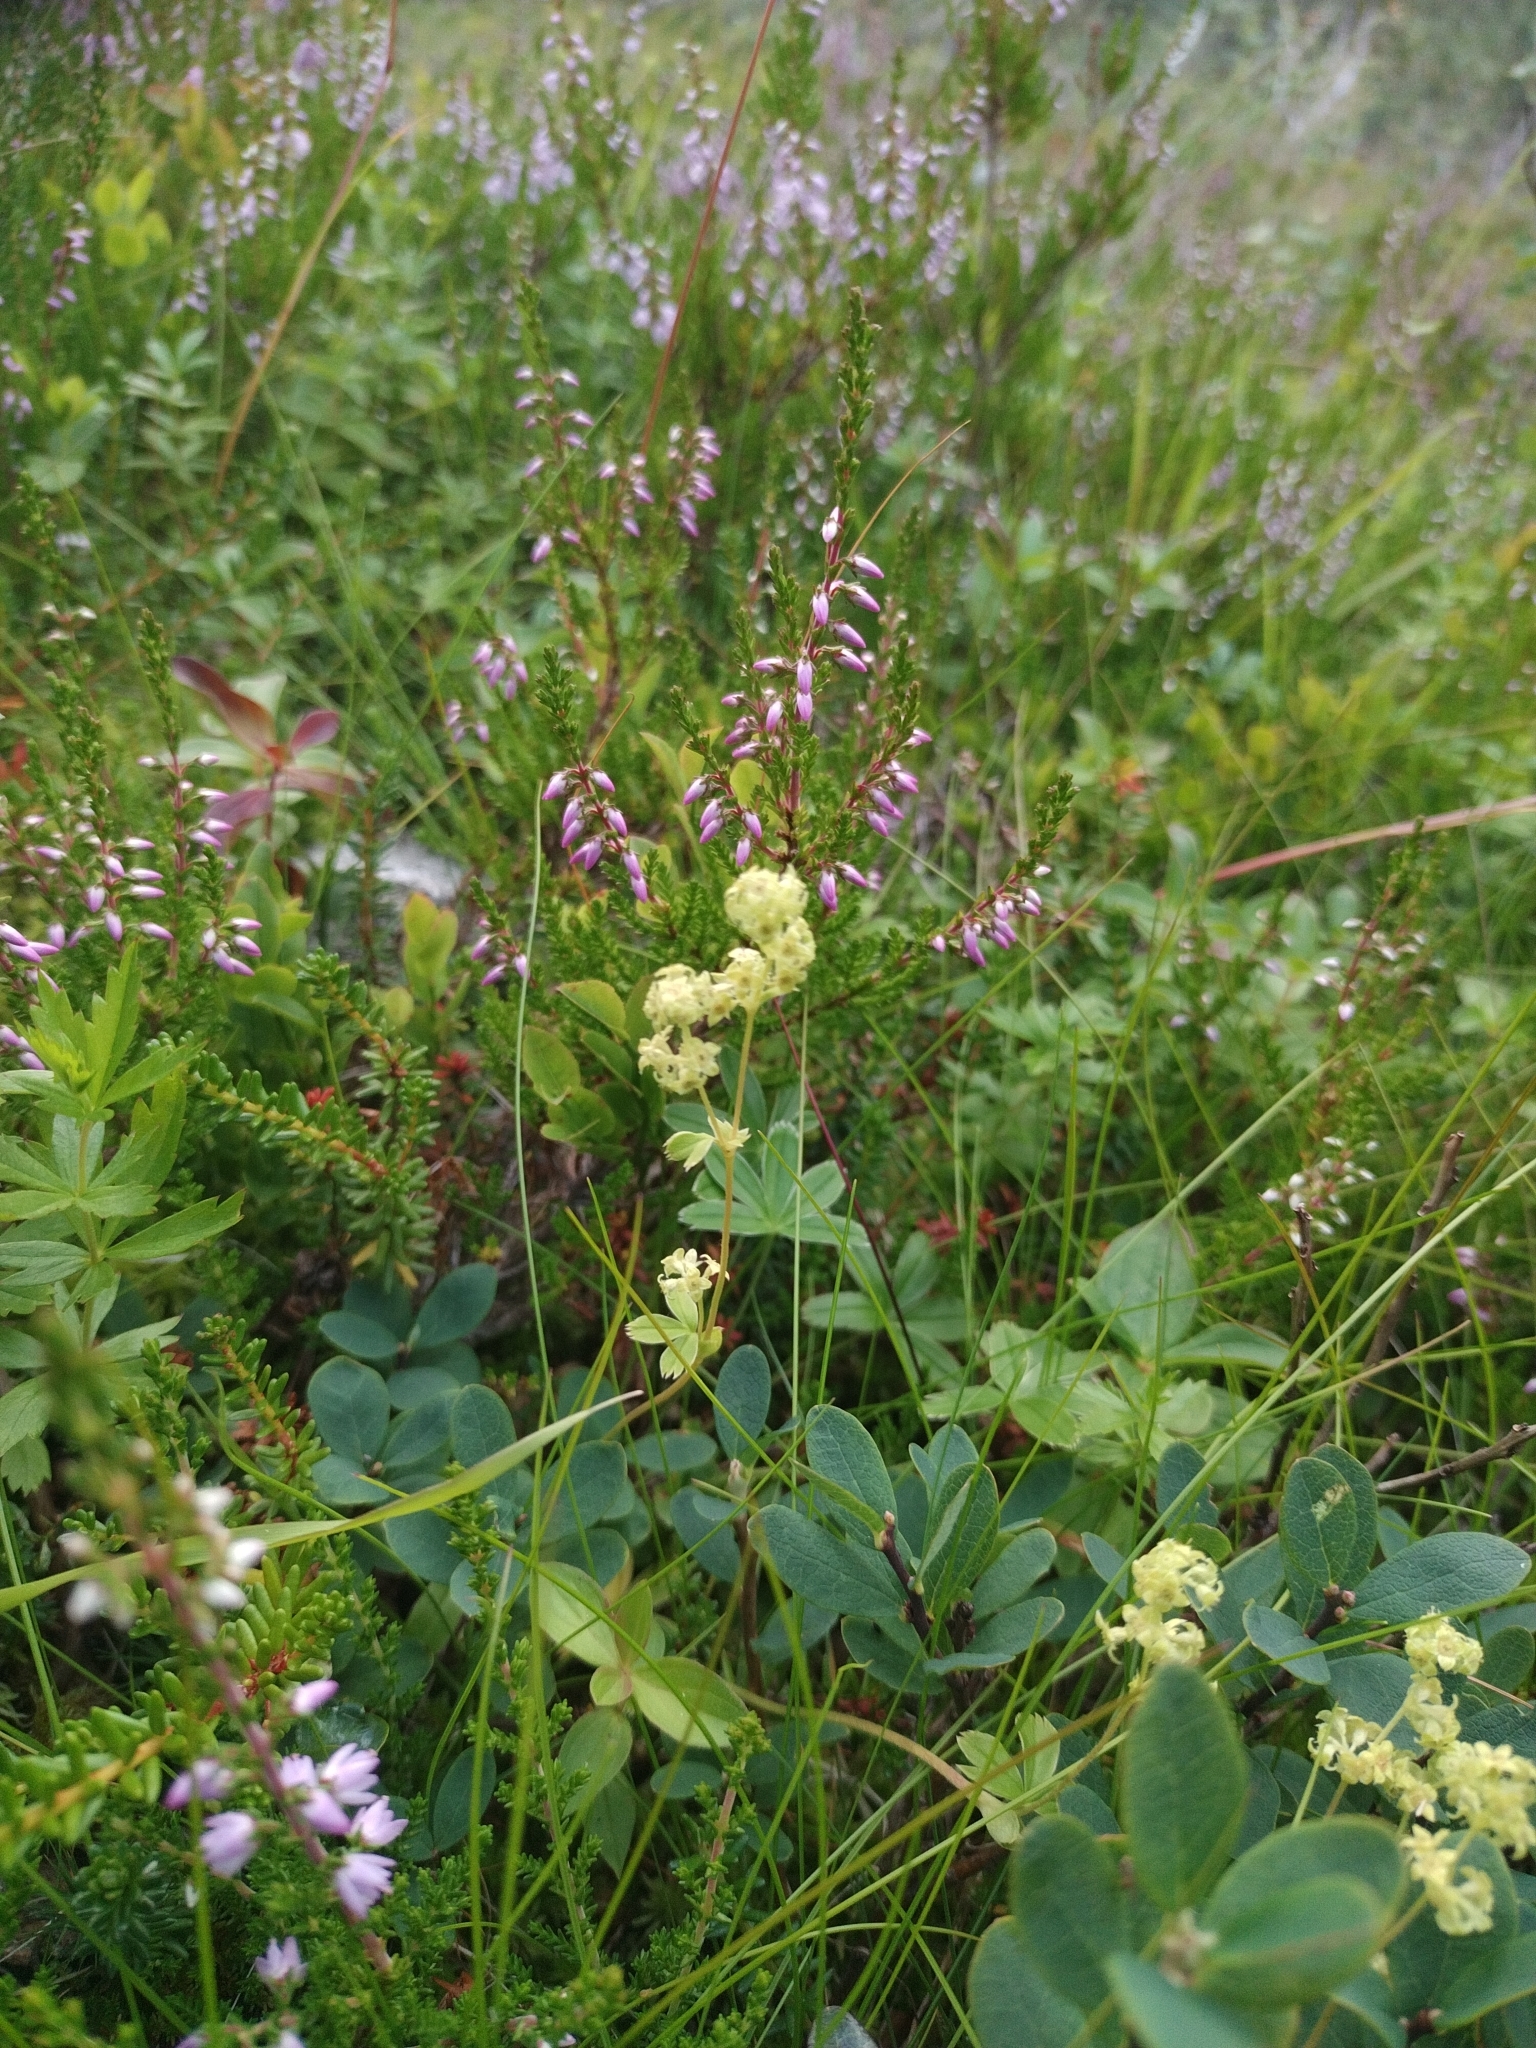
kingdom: Plantae
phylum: Tracheophyta
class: Magnoliopsida
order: Rosales
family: Rosaceae
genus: Alchemilla
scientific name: Alchemilla alpina
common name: Alpine lady's-mantle
